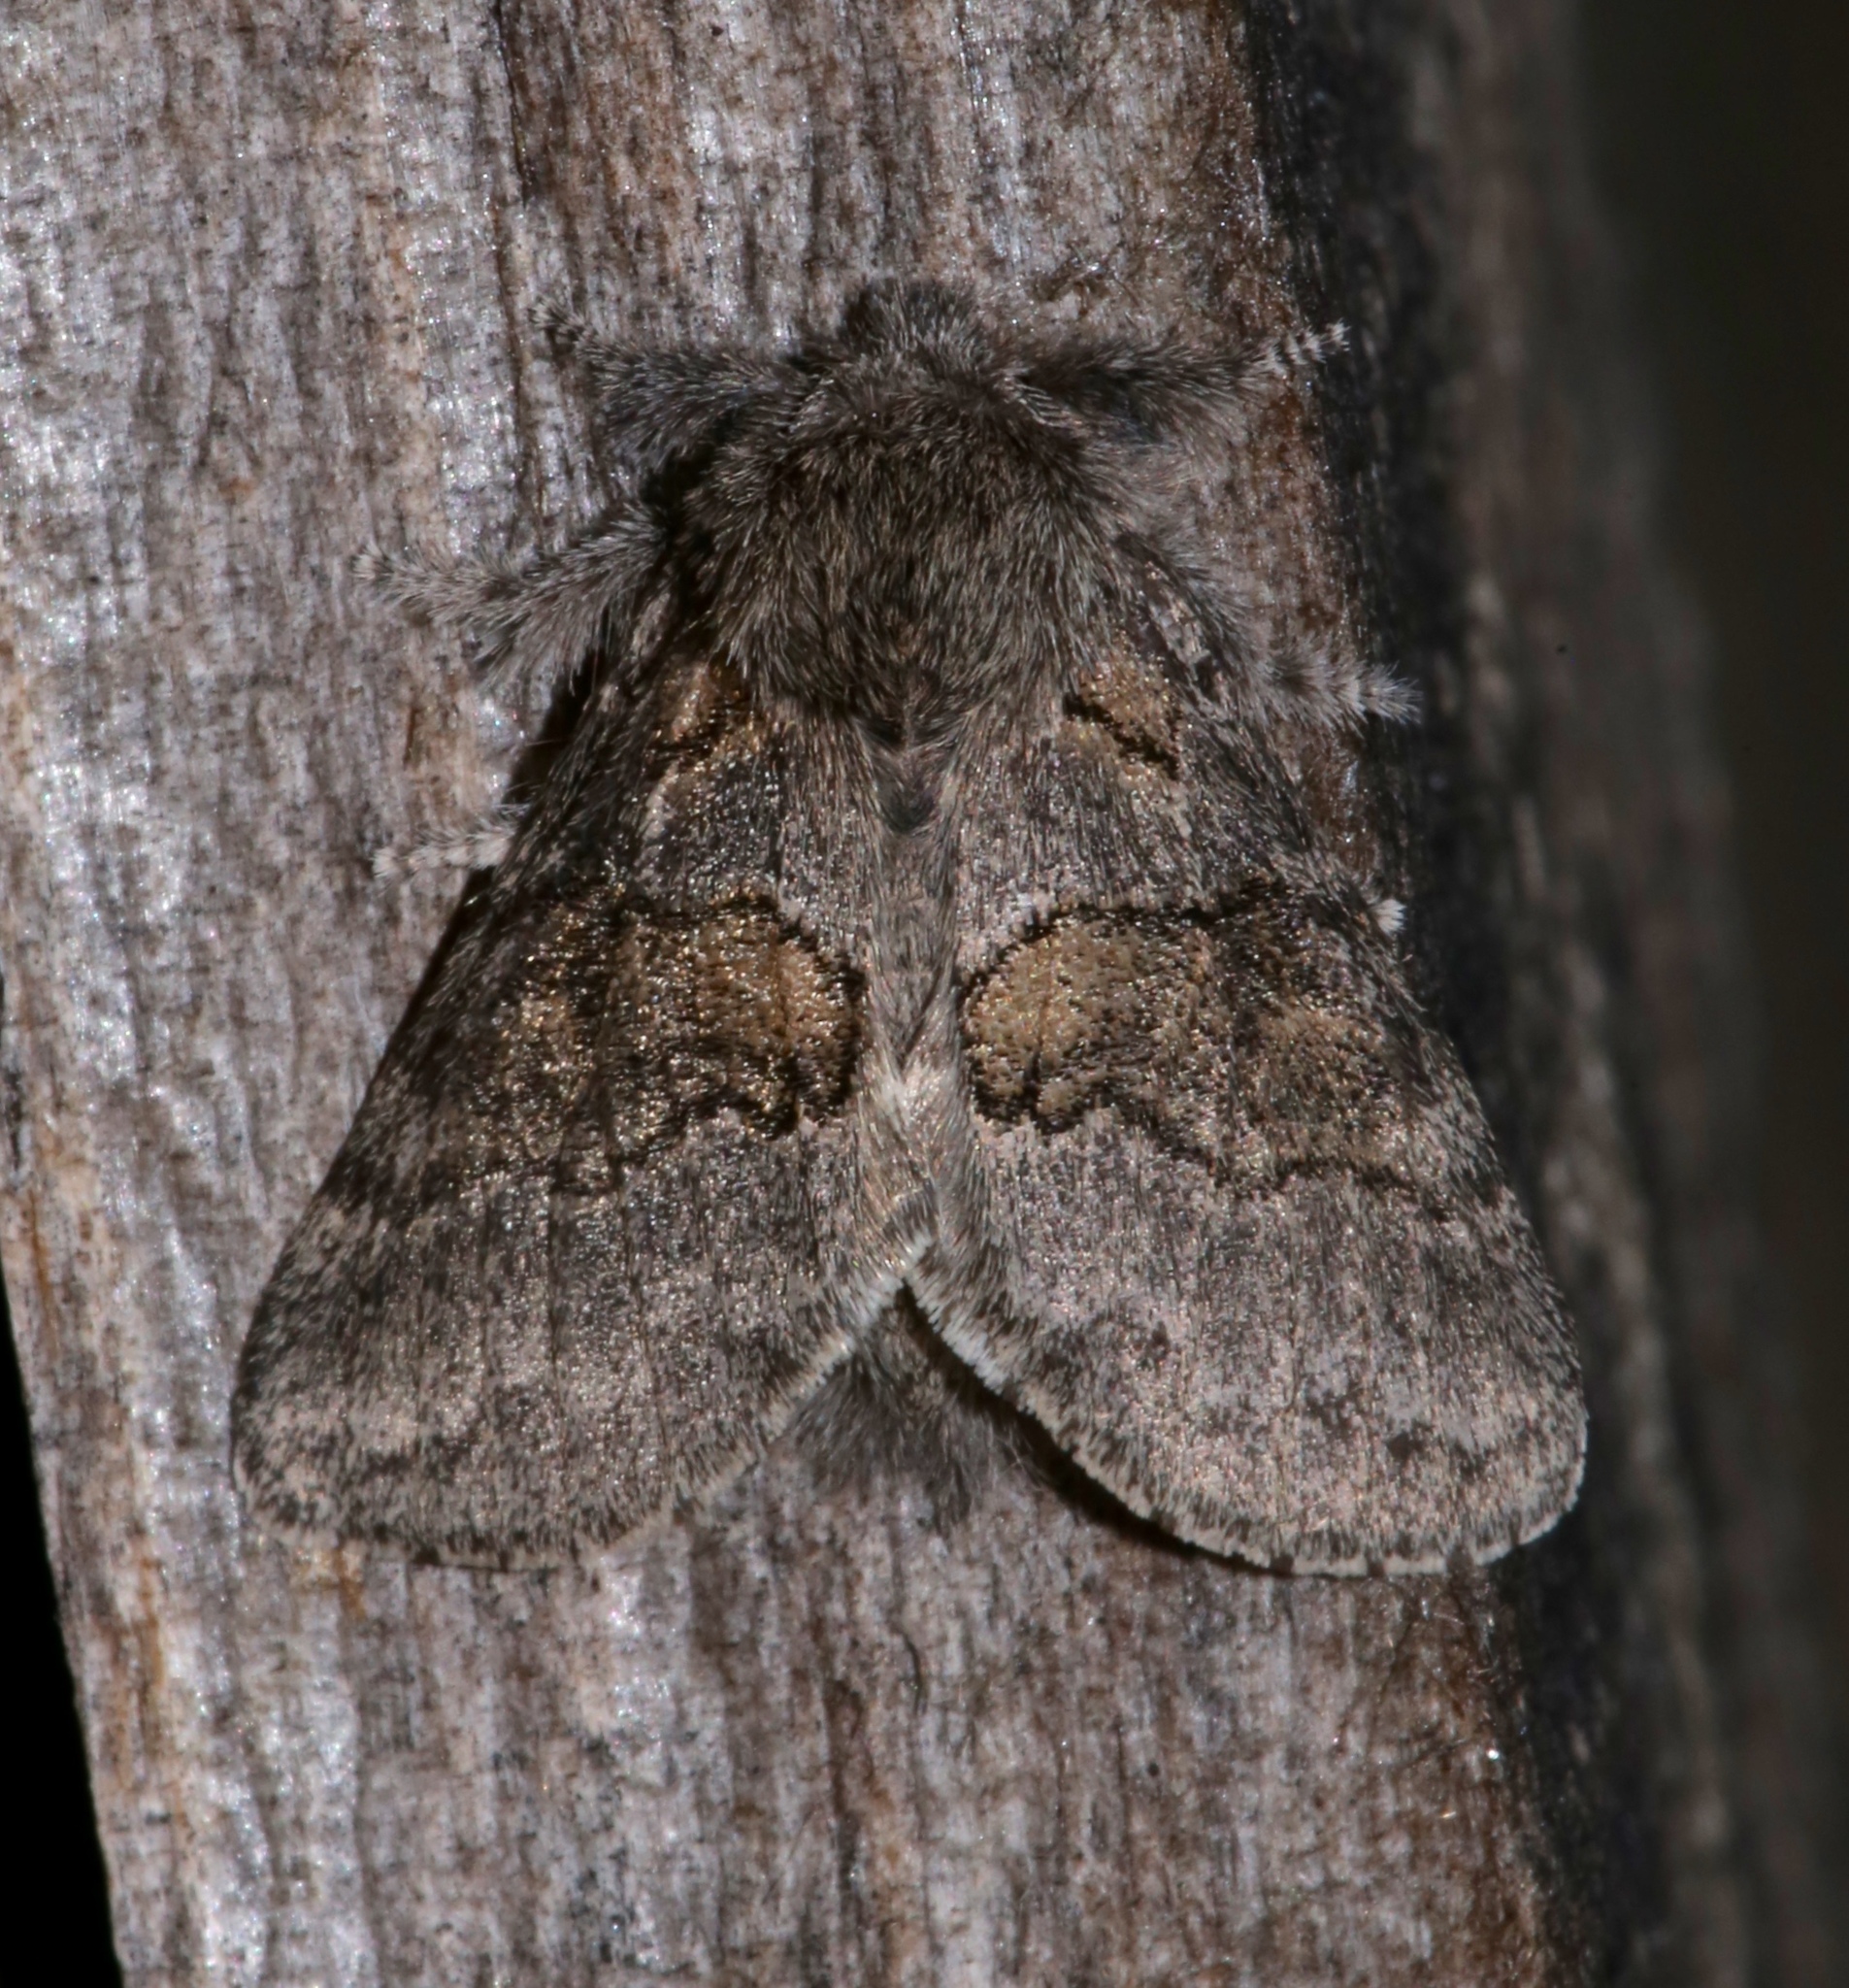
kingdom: Animalia
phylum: Arthropoda
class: Insecta
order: Lepidoptera
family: Notodontidae
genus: Gluphisia
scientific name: Gluphisia septentrionis
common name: Common gluphisia
